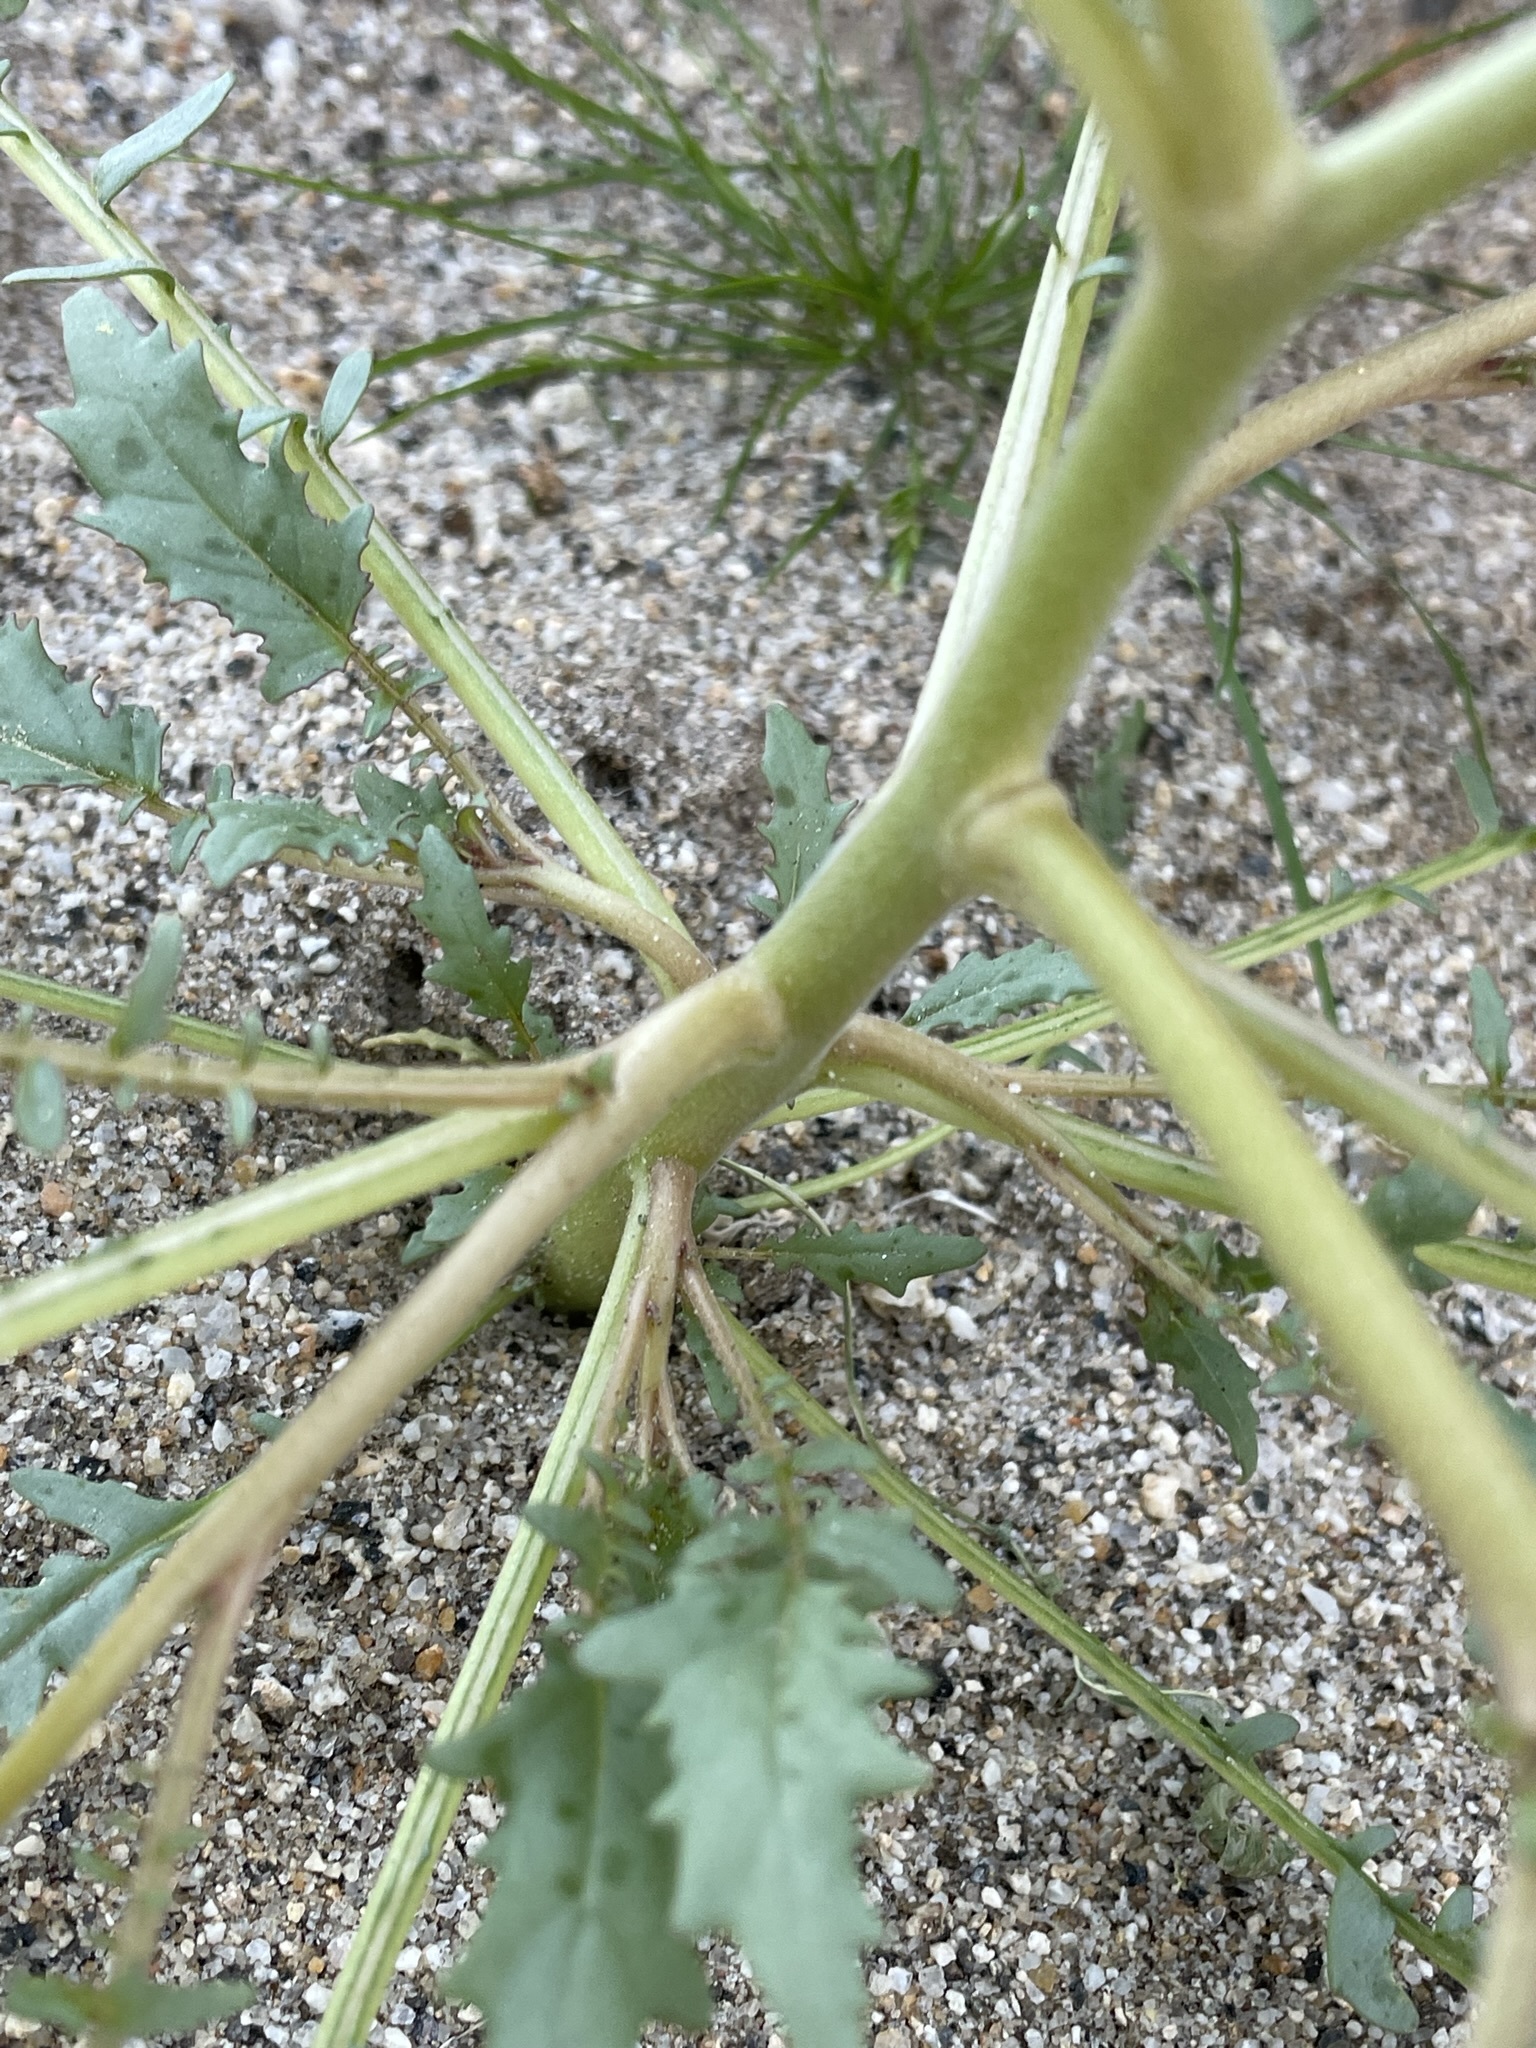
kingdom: Plantae
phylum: Tracheophyta
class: Magnoliopsida
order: Myrtales
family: Onagraceae
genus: Chylismia
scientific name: Chylismia claviformis
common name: Browneyes
